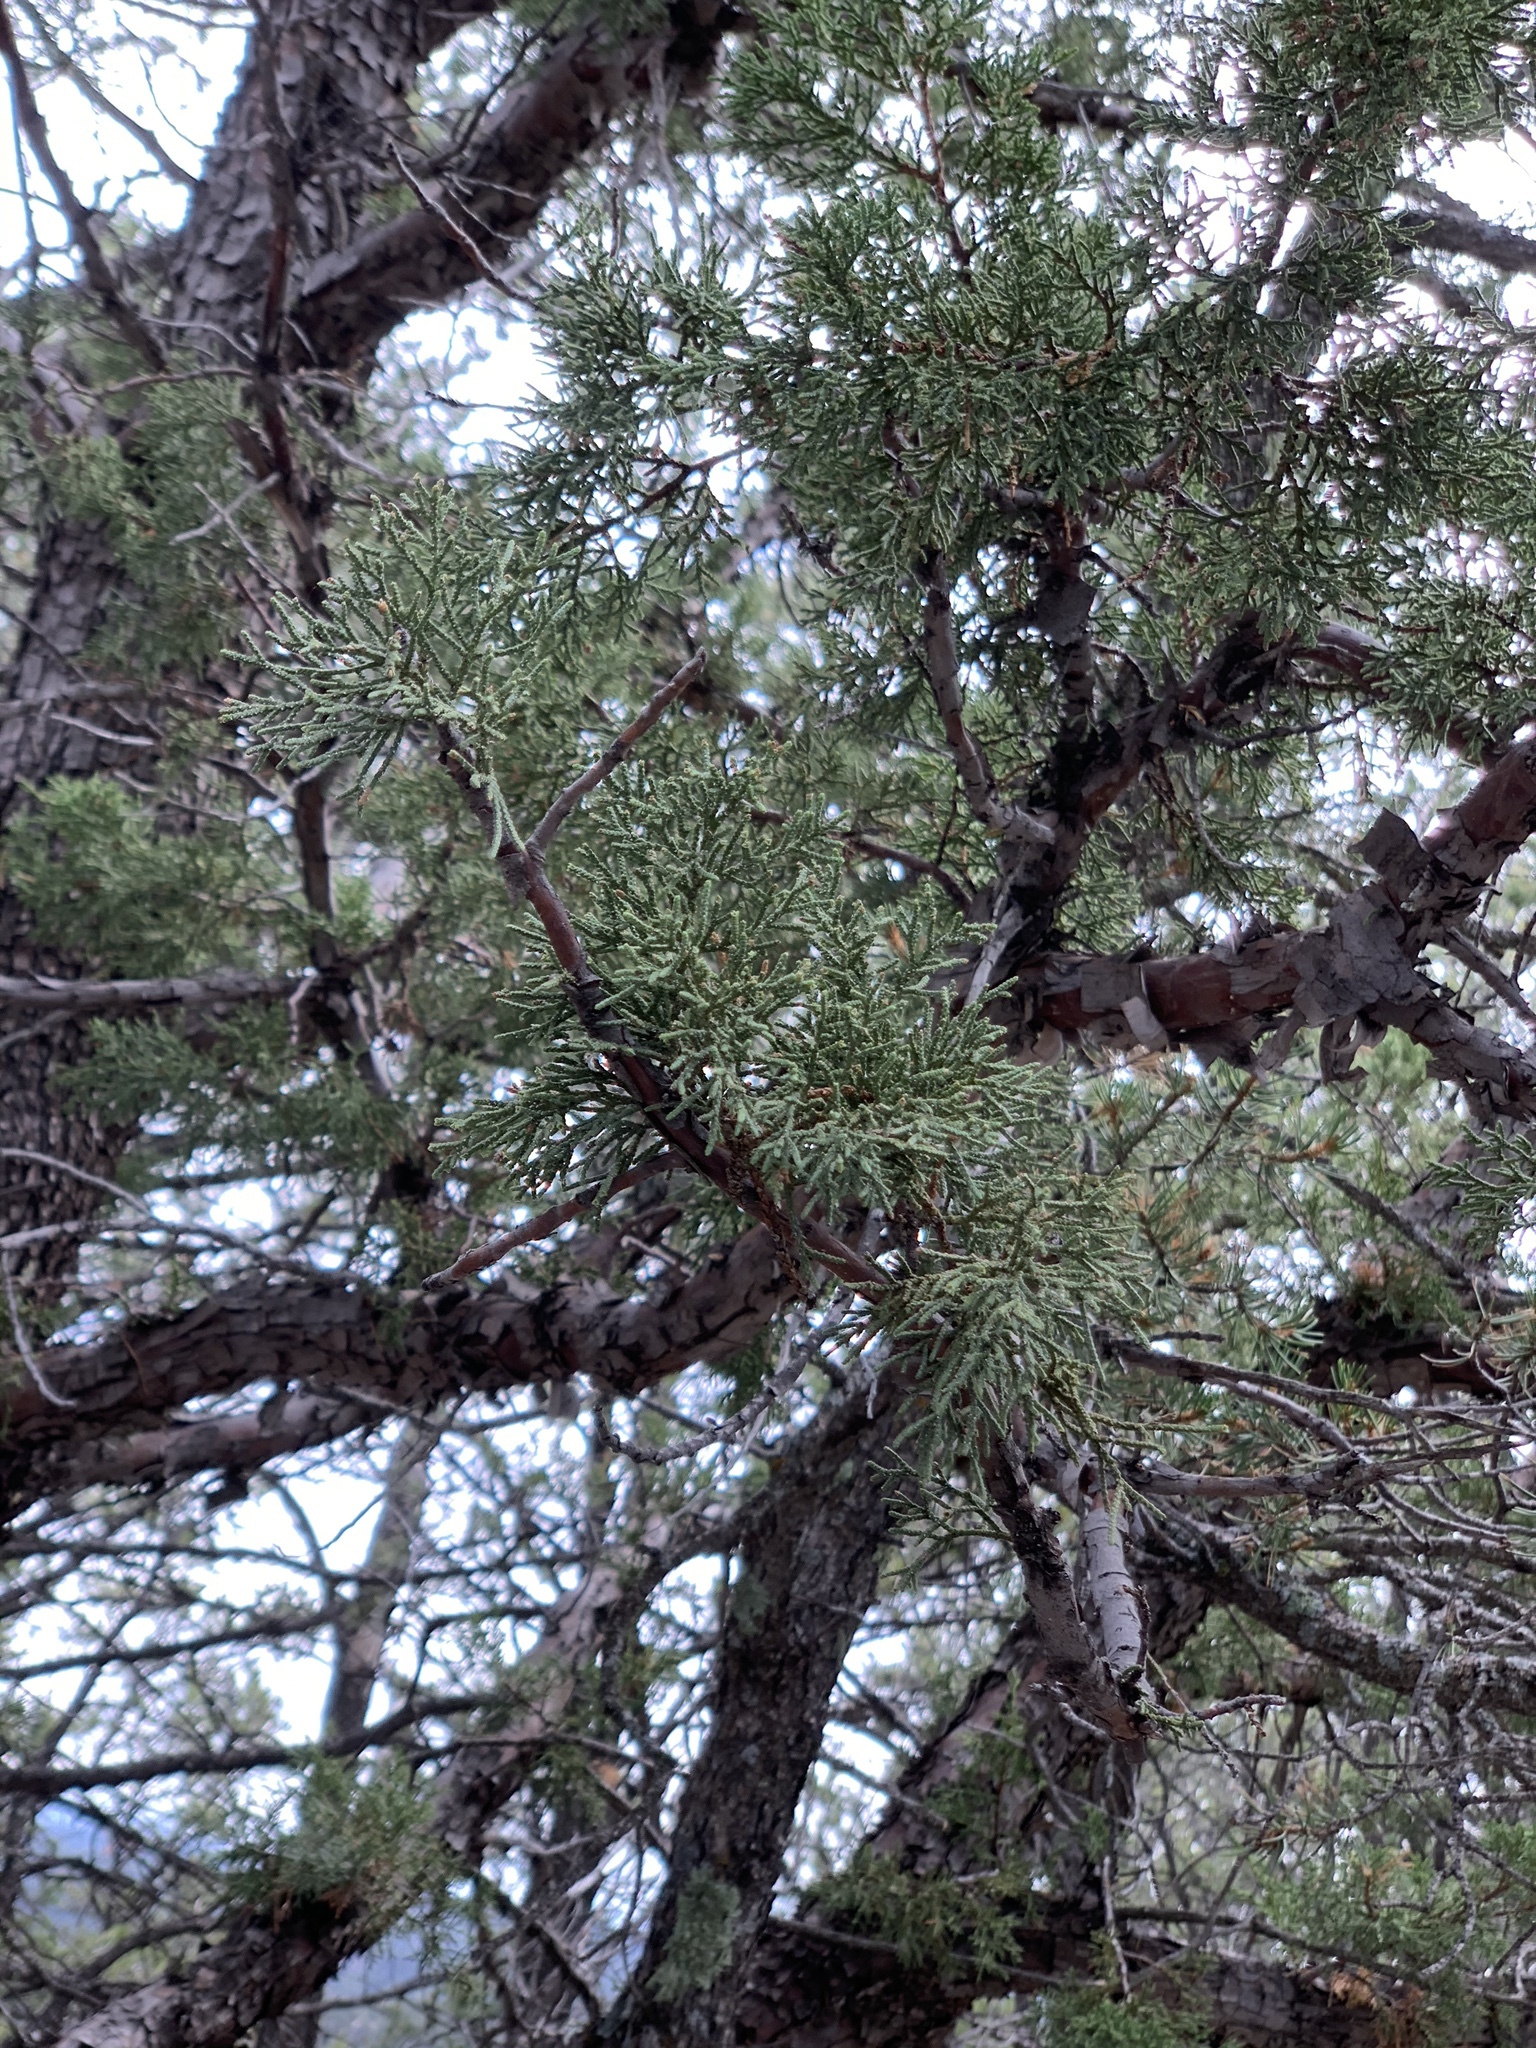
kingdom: Plantae
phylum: Tracheophyta
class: Pinopsida
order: Pinales
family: Cupressaceae
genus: Juniperus
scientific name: Juniperus deppeana
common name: Alligator juniper
